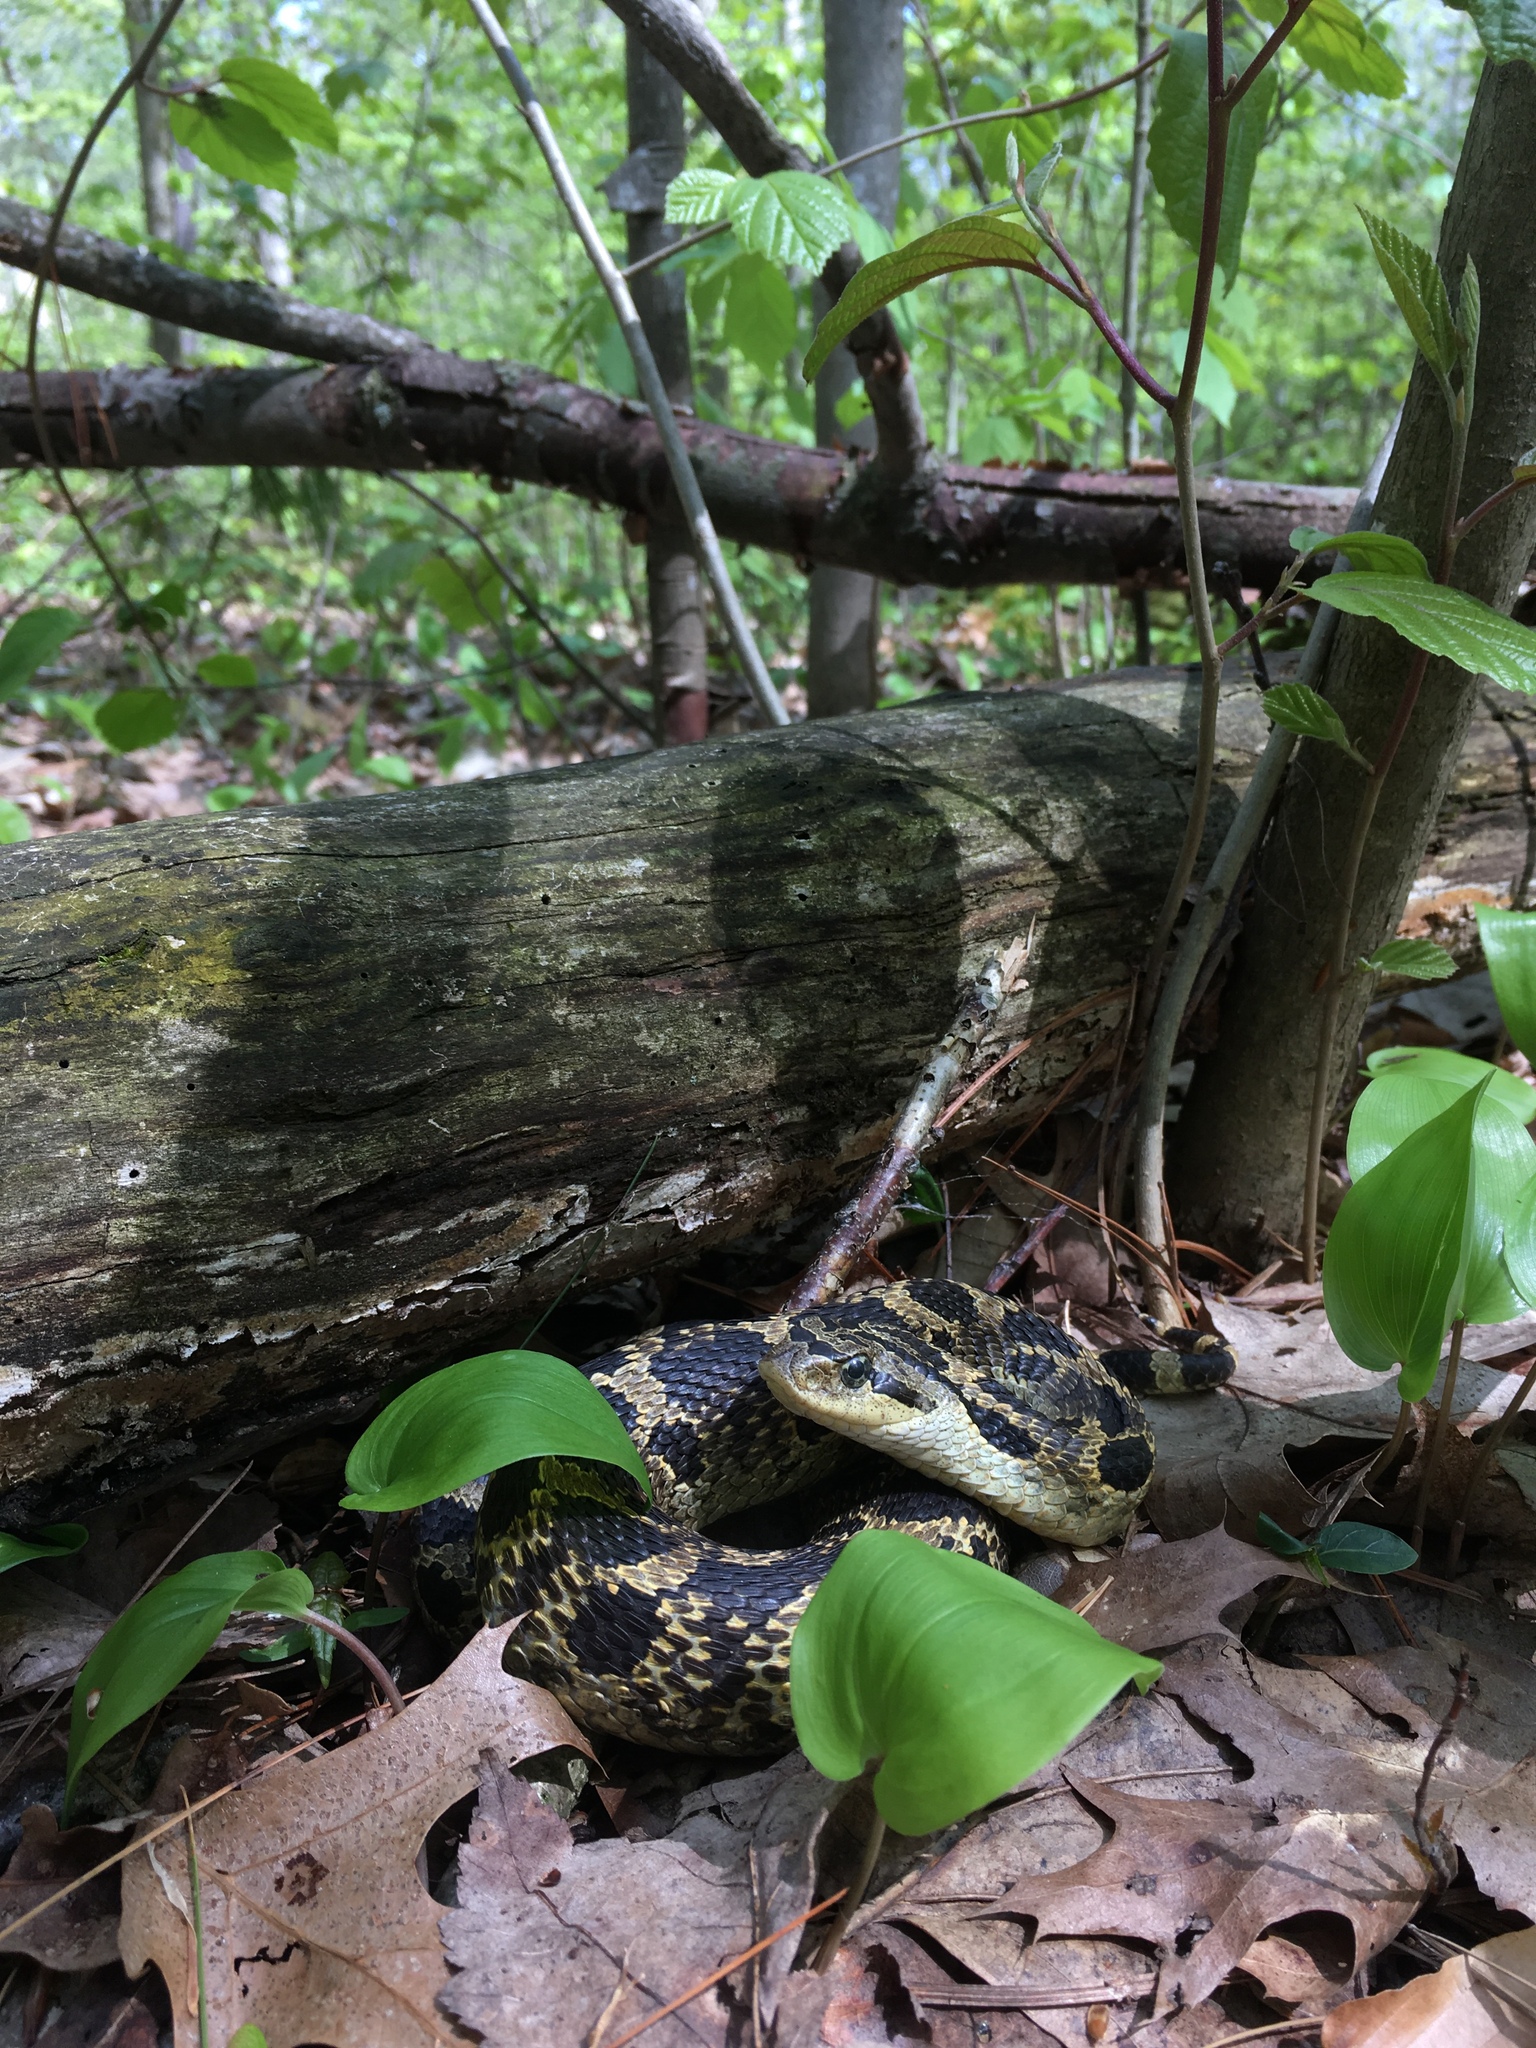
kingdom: Animalia
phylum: Chordata
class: Squamata
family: Colubridae
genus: Heterodon
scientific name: Heterodon platirhinos
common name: Eastern hognose snake
